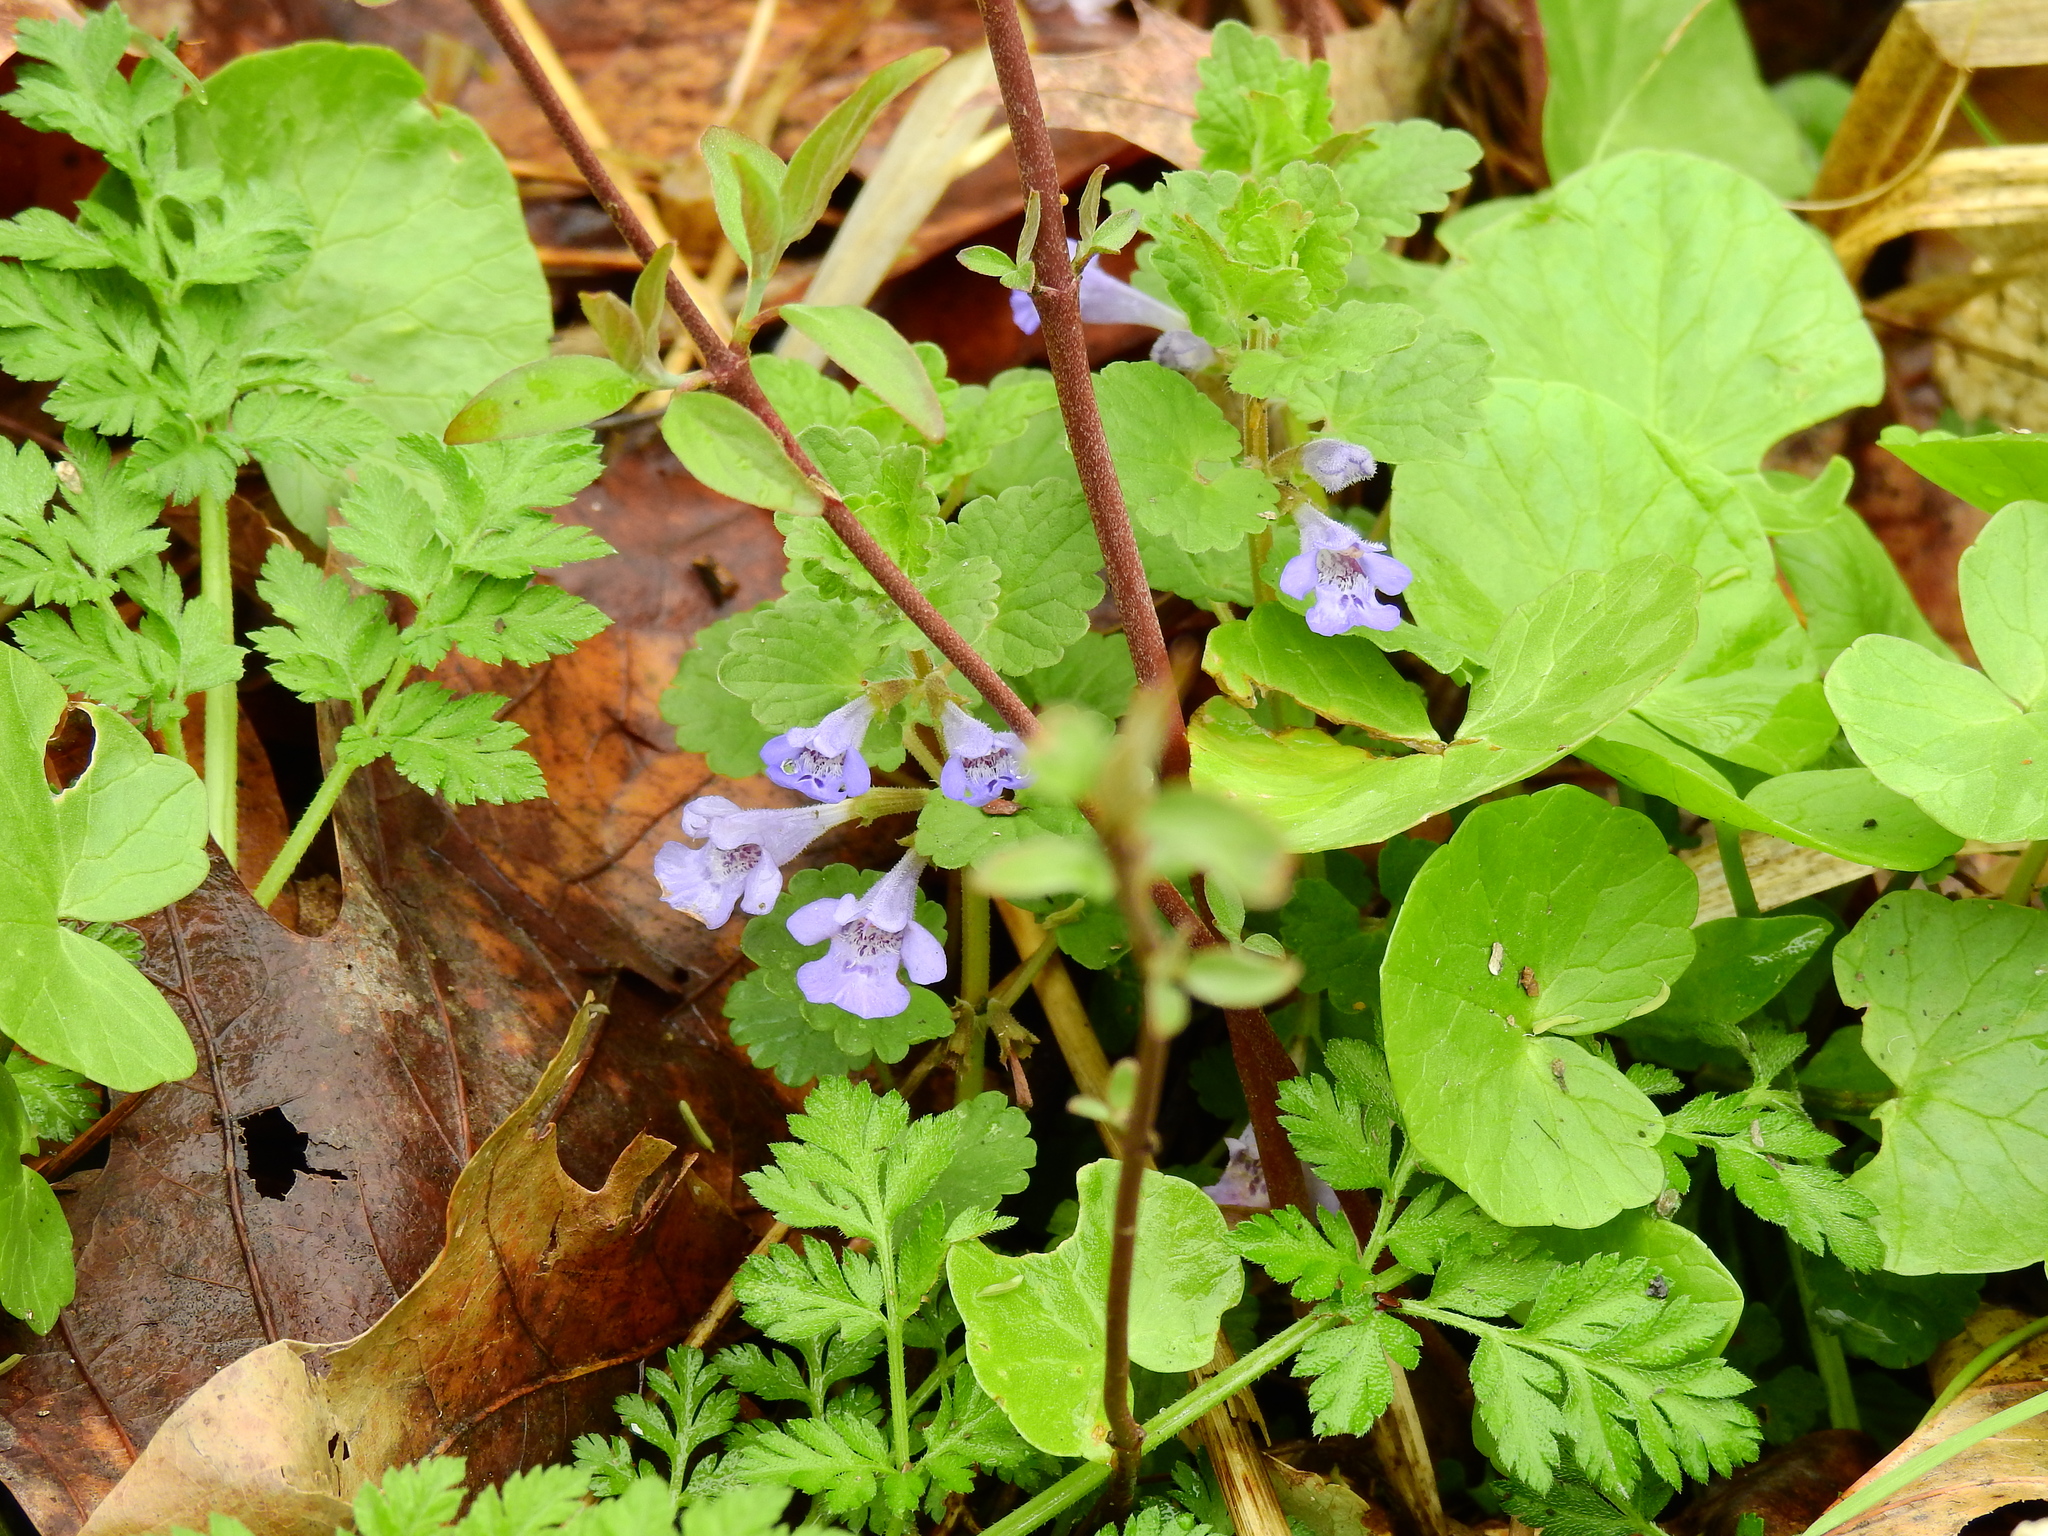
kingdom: Plantae
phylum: Tracheophyta
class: Magnoliopsida
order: Lamiales
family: Lamiaceae
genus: Glechoma
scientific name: Glechoma hederacea
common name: Ground ivy
